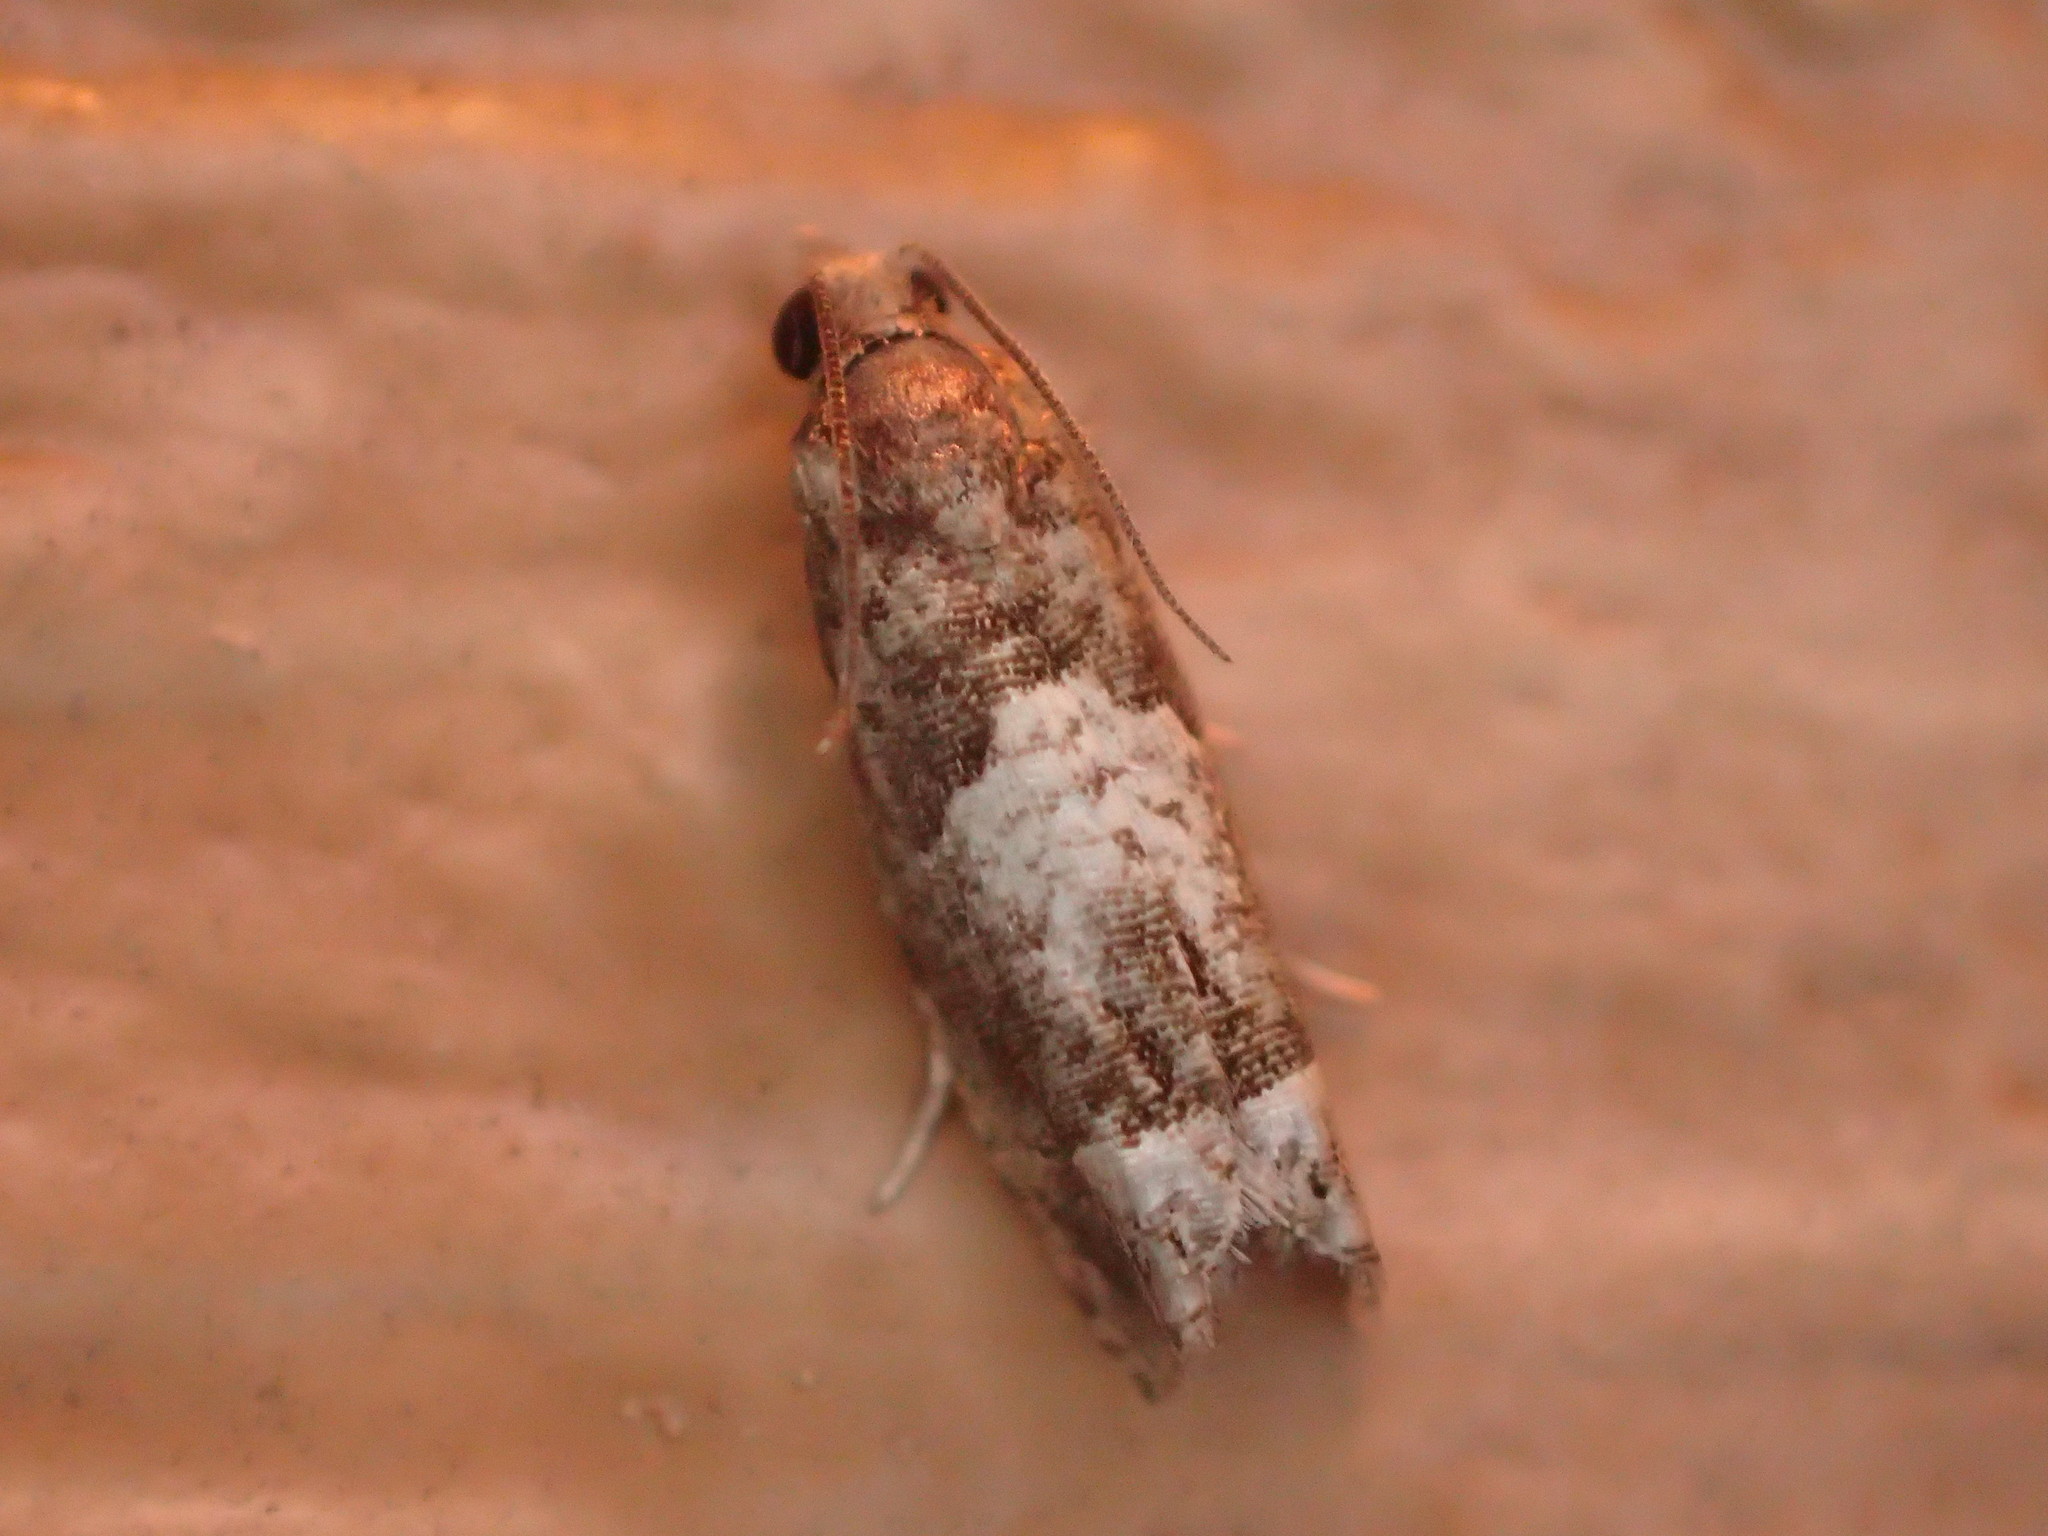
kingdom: Animalia
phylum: Arthropoda
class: Insecta
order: Lepidoptera
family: Tortricidae
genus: Eucosma
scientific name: Eucosma parmatana
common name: Aster eucosma moth
